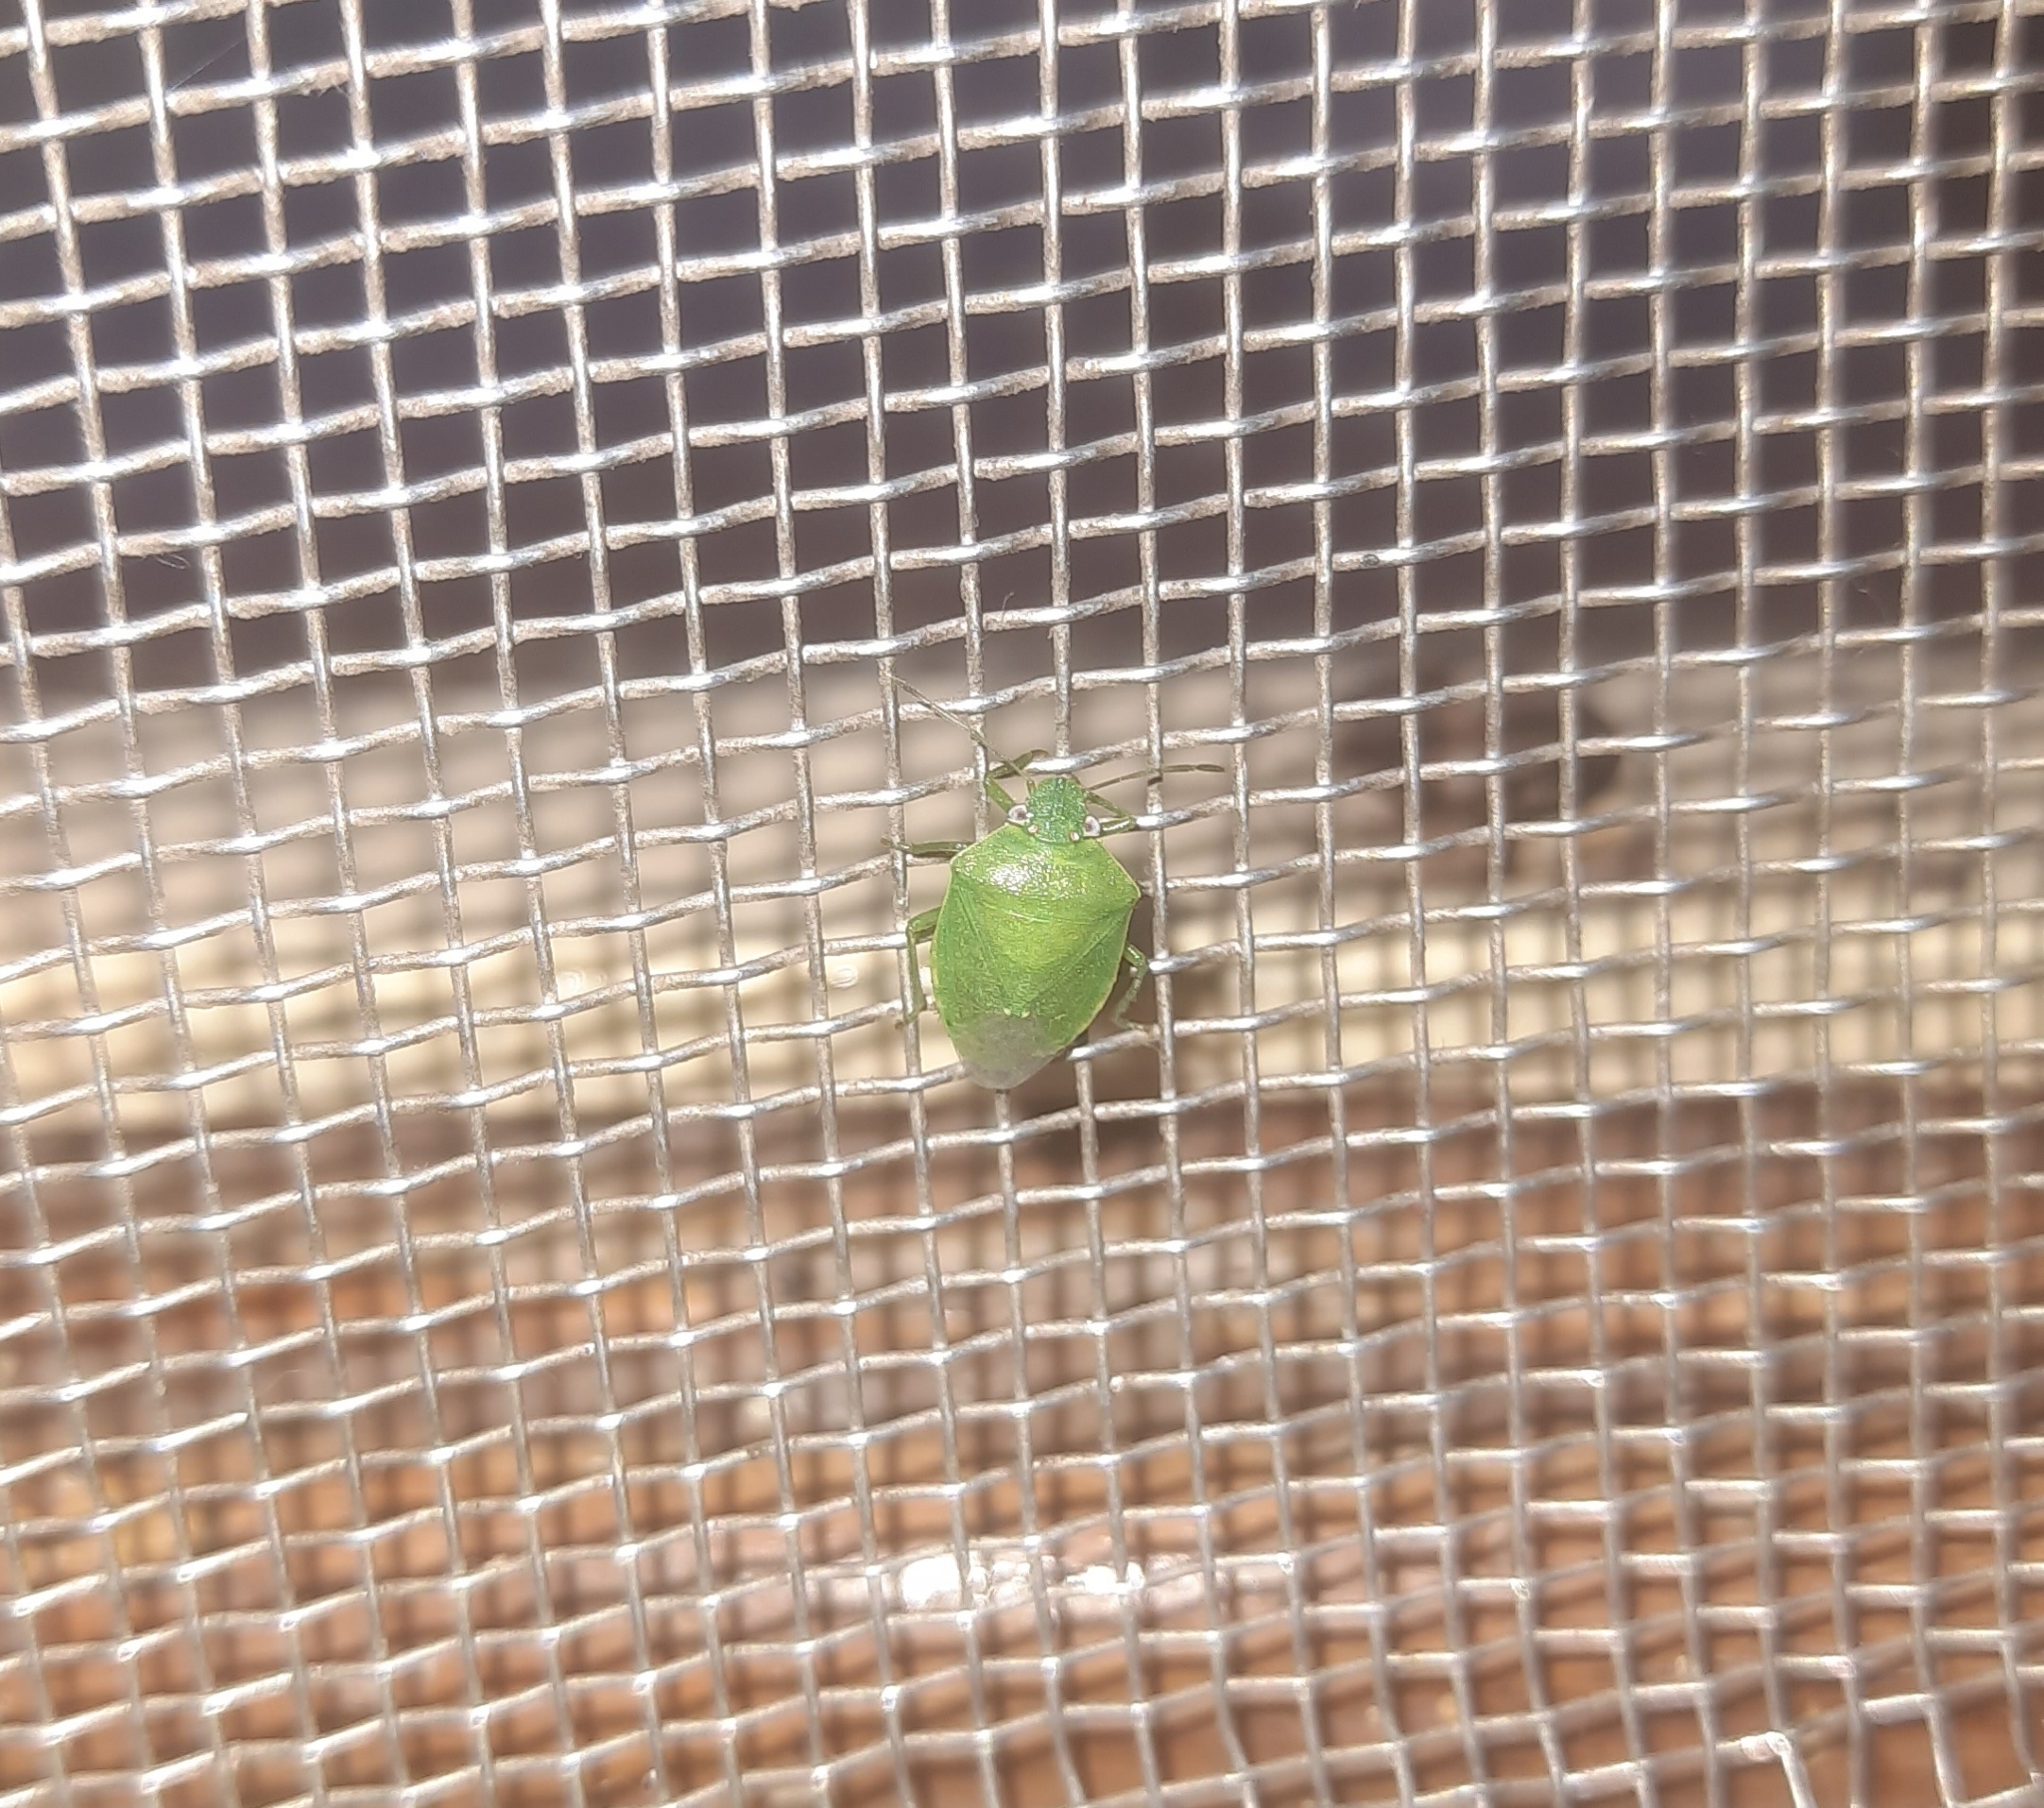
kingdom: Animalia
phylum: Arthropoda
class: Insecta
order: Hemiptera
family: Pentatomidae
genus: Acrosternum
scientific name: Acrosternum gramineum
